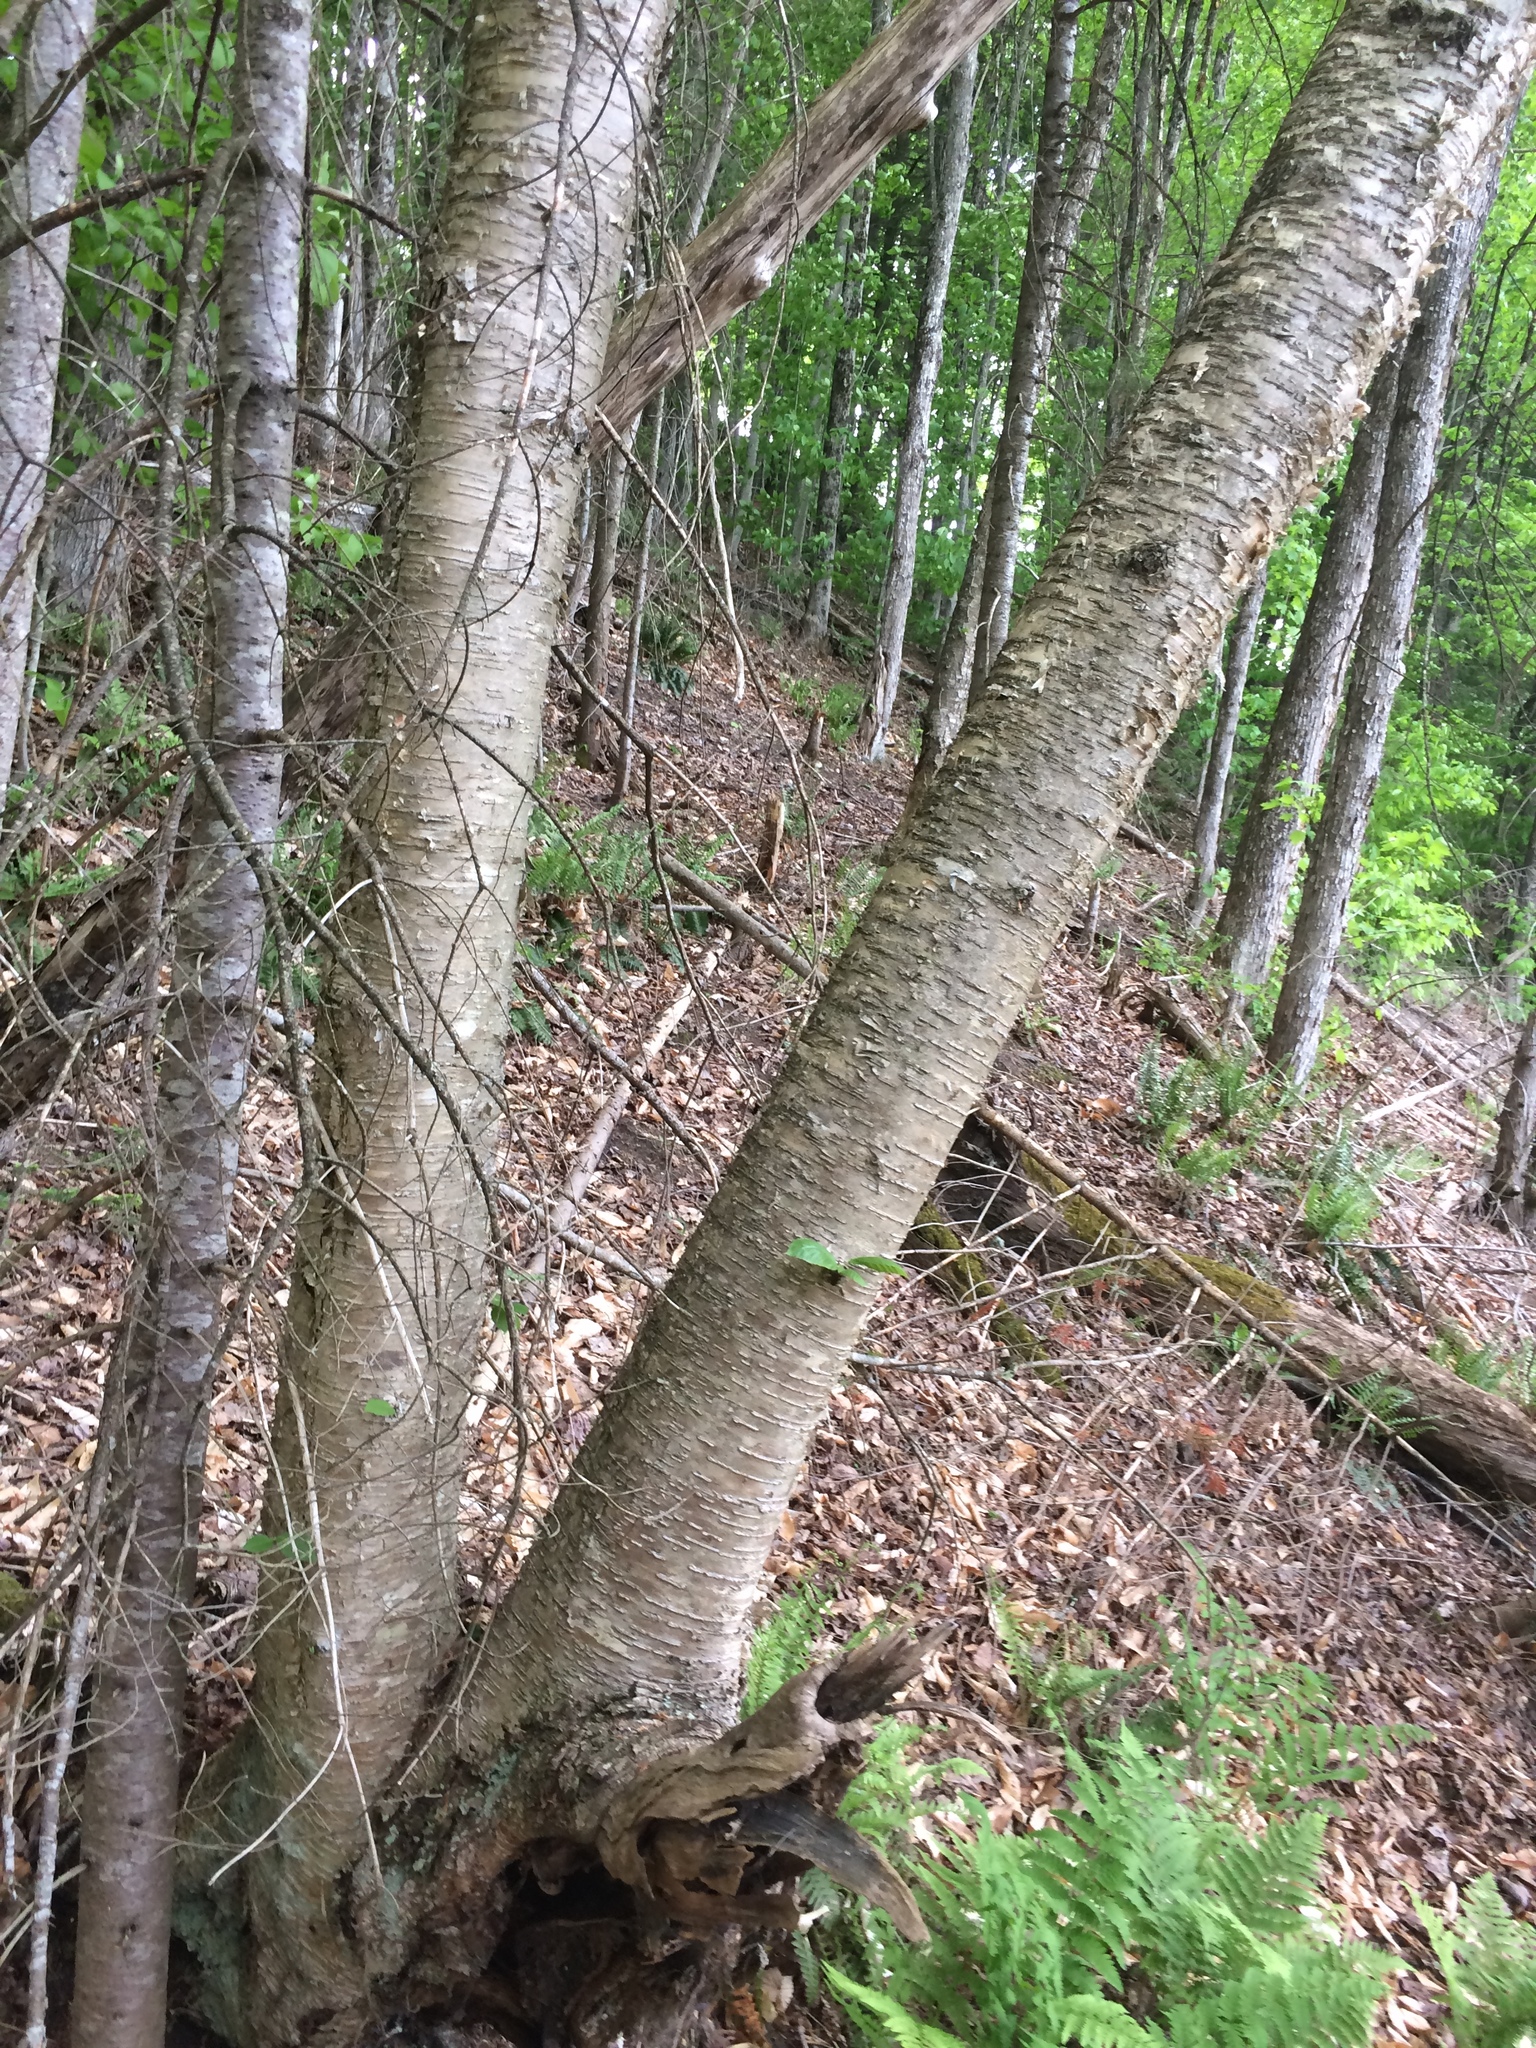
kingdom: Plantae
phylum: Tracheophyta
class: Magnoliopsida
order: Fagales
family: Betulaceae
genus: Betula
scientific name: Betula alleghaniensis
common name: Yellow birch
